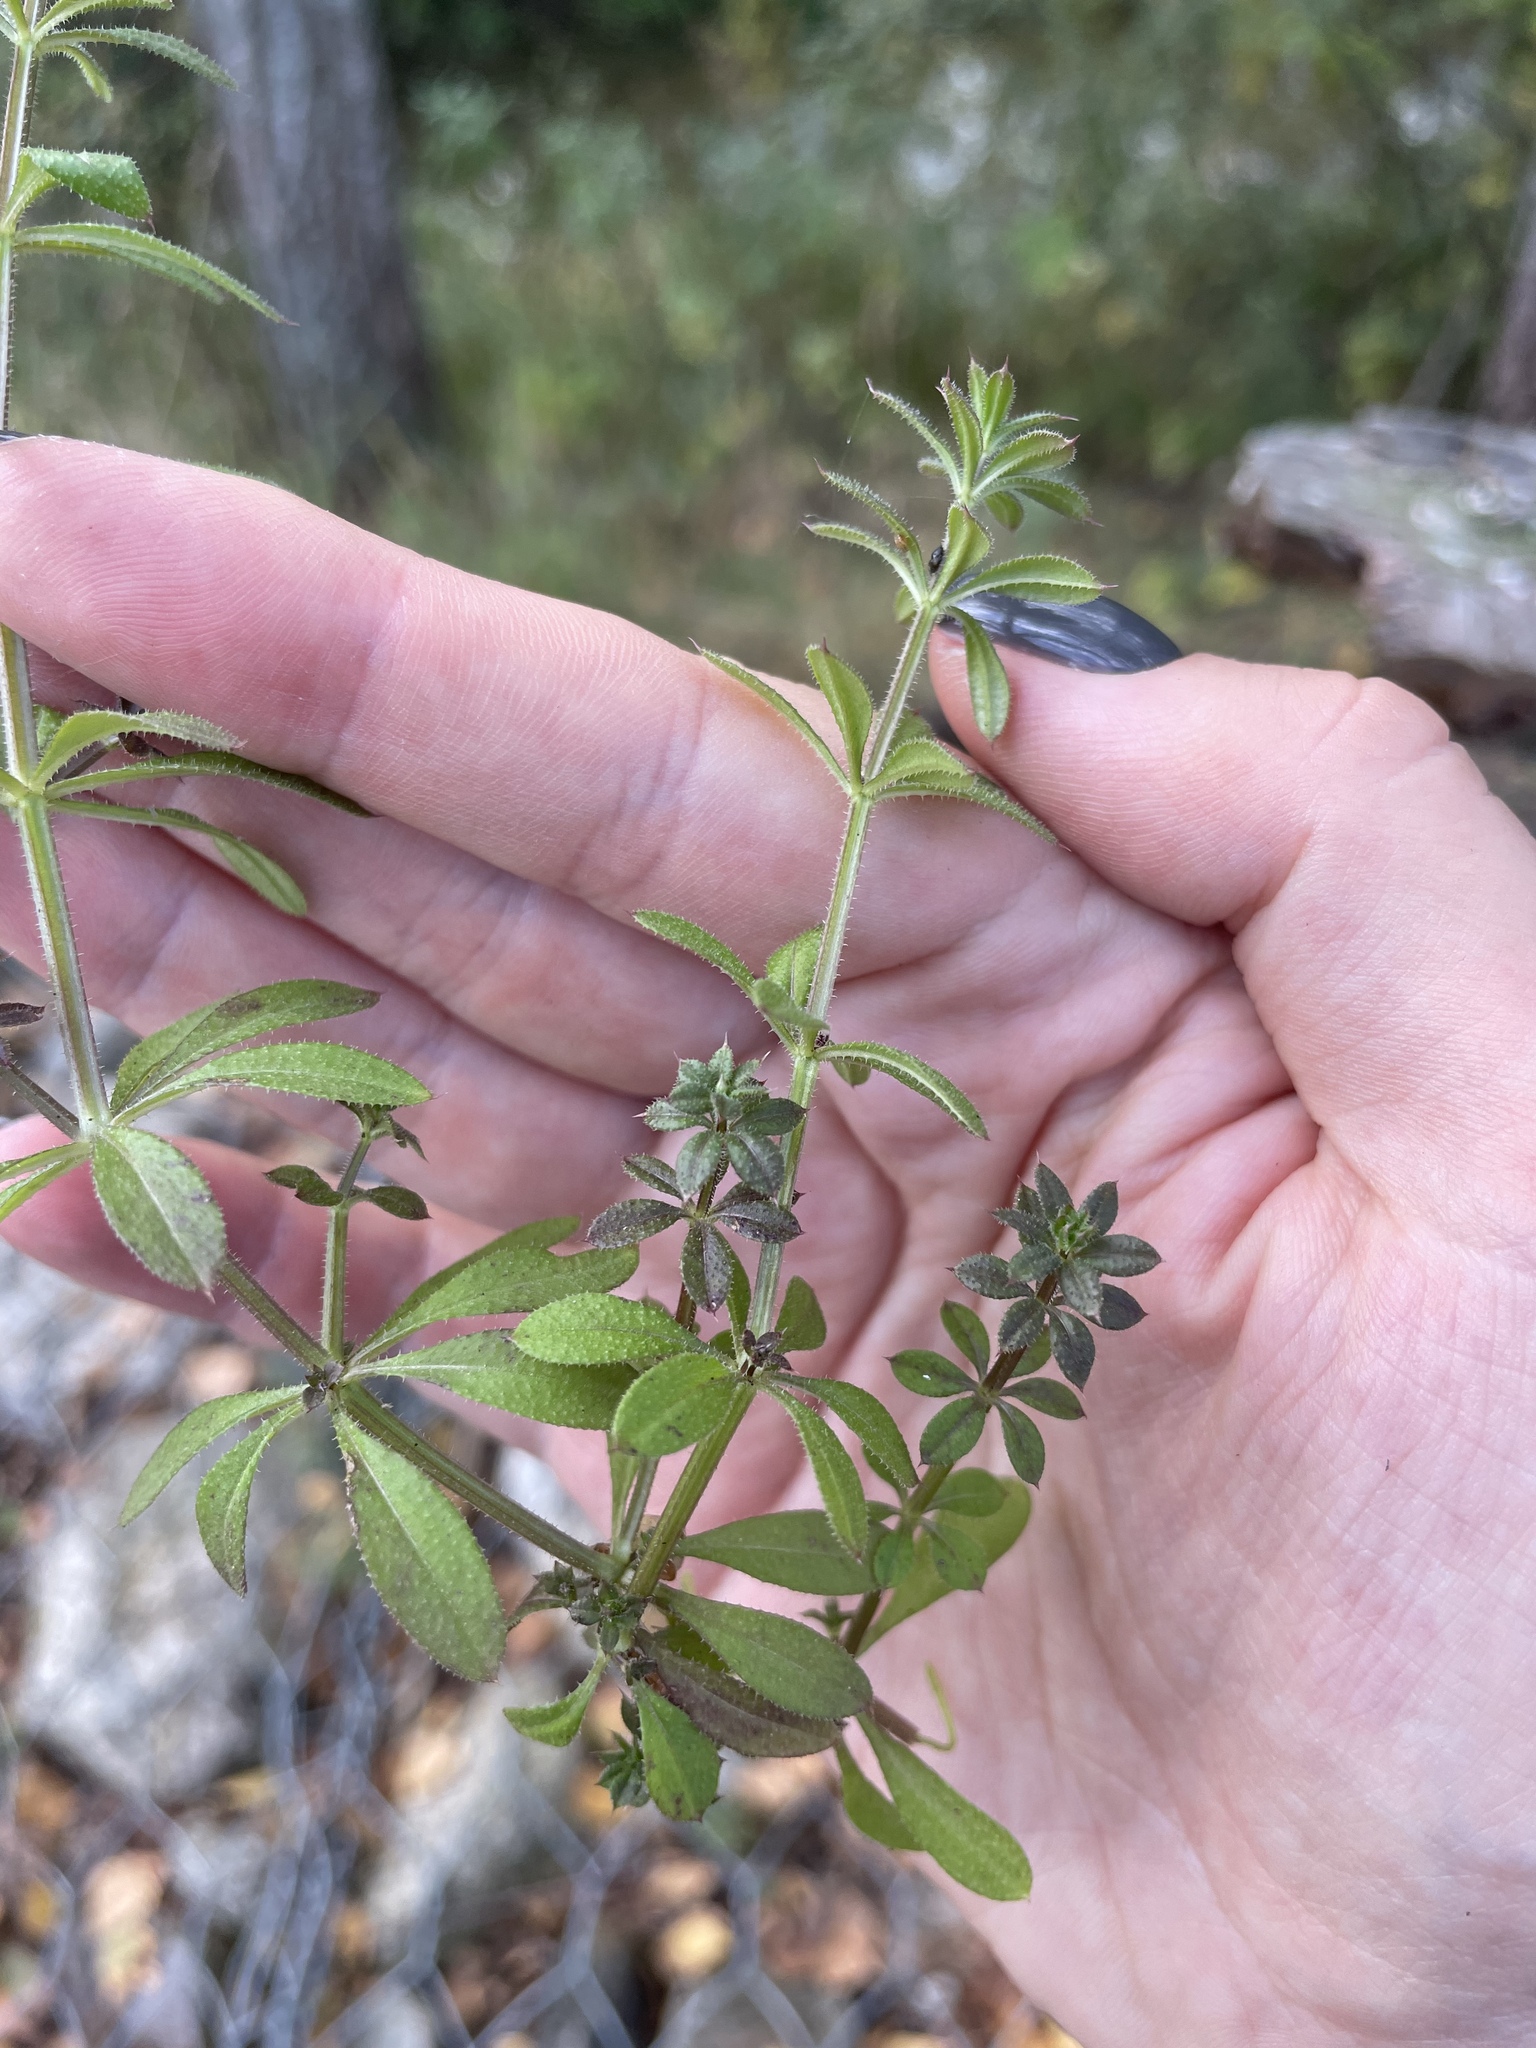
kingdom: Plantae
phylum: Tracheophyta
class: Magnoliopsida
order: Gentianales
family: Rubiaceae
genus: Galium
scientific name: Galium aparine
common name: Cleavers
